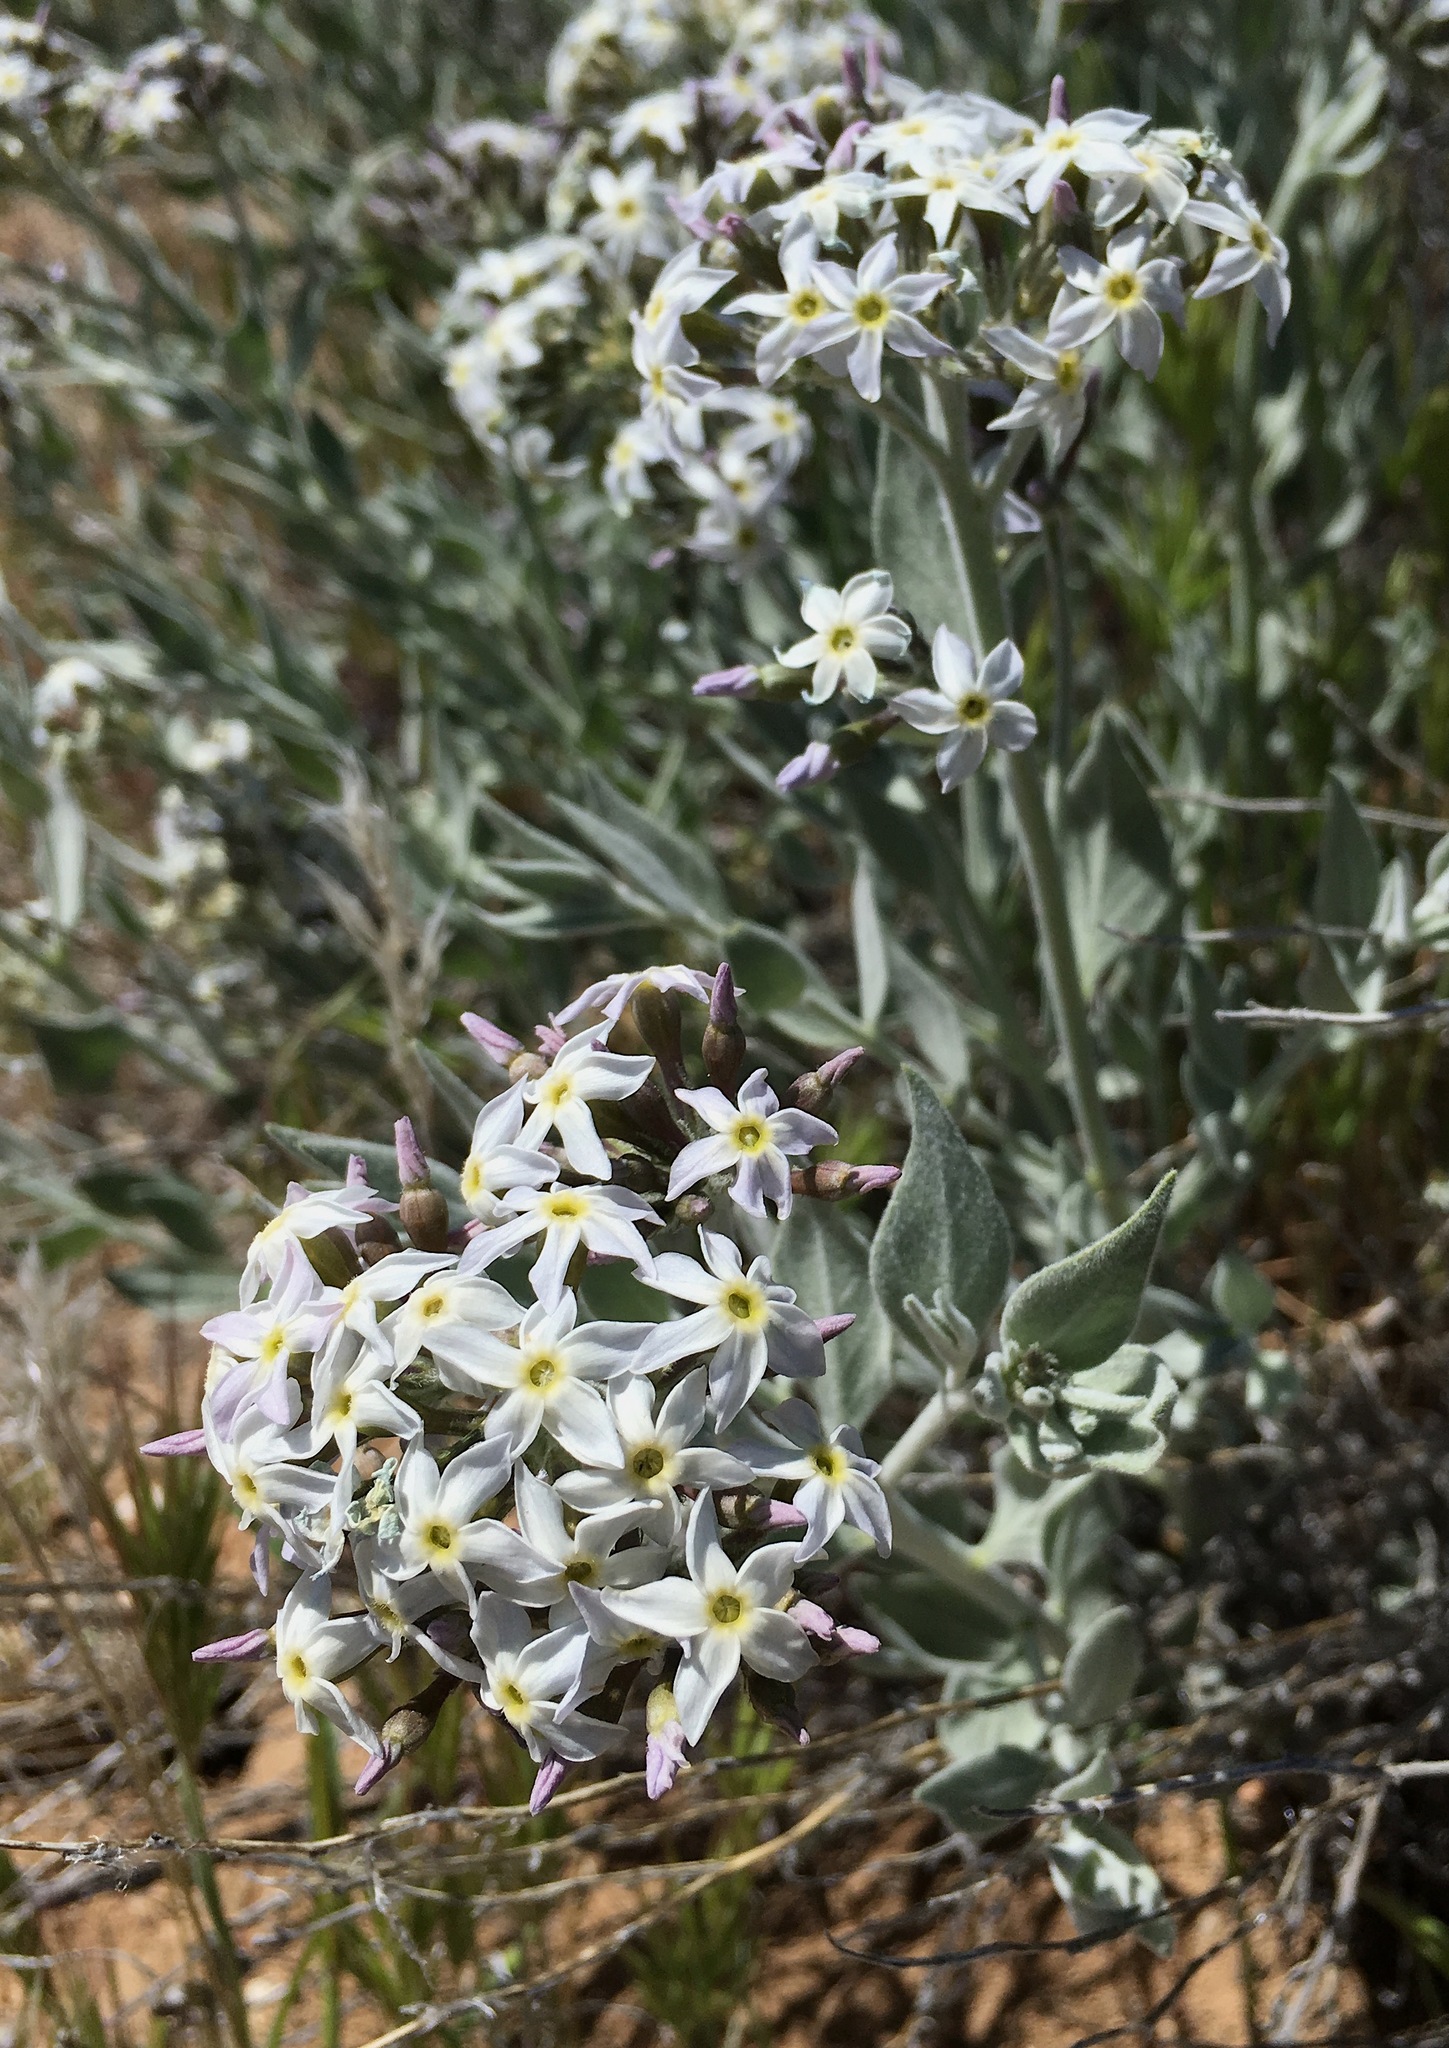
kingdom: Plantae
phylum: Tracheophyta
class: Magnoliopsida
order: Gentianales
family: Apocynaceae
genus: Amsonia
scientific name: Amsonia tomentosa
